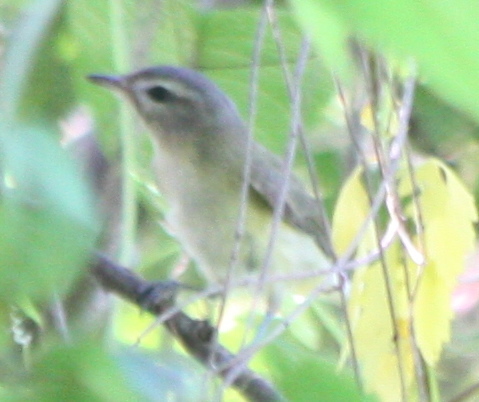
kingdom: Animalia
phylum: Chordata
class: Aves
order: Passeriformes
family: Vireonidae
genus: Vireo
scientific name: Vireo gilvus
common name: Warbling vireo
